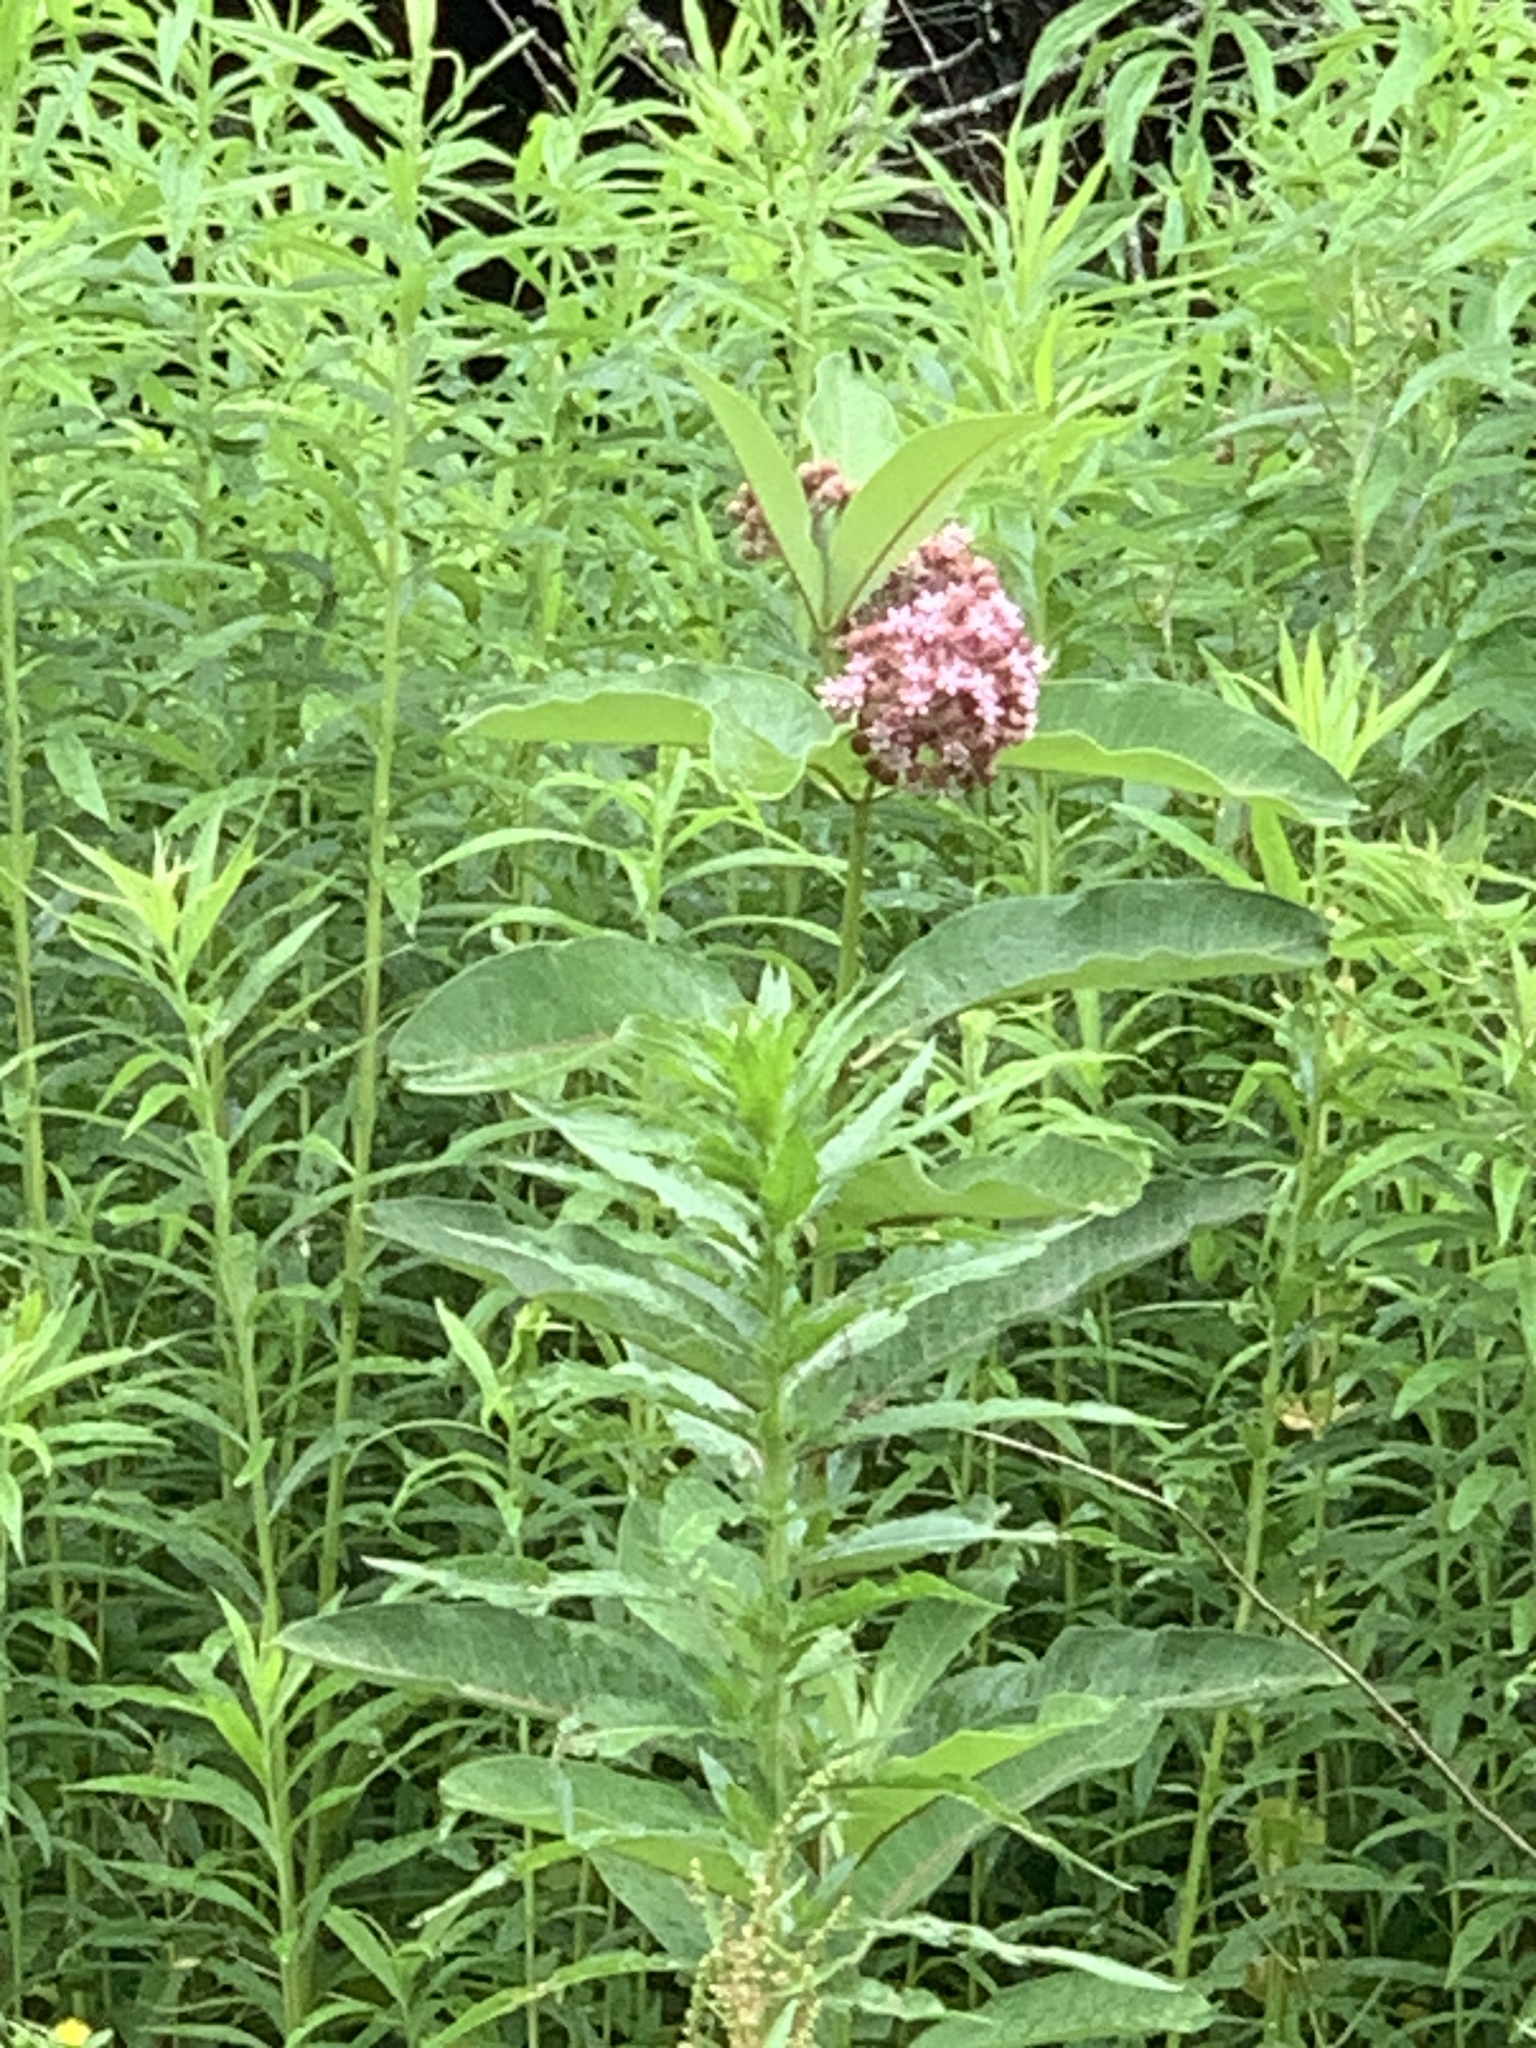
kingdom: Plantae
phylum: Tracheophyta
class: Magnoliopsida
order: Gentianales
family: Apocynaceae
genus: Asclepias
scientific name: Asclepias syriaca
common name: Common milkweed
